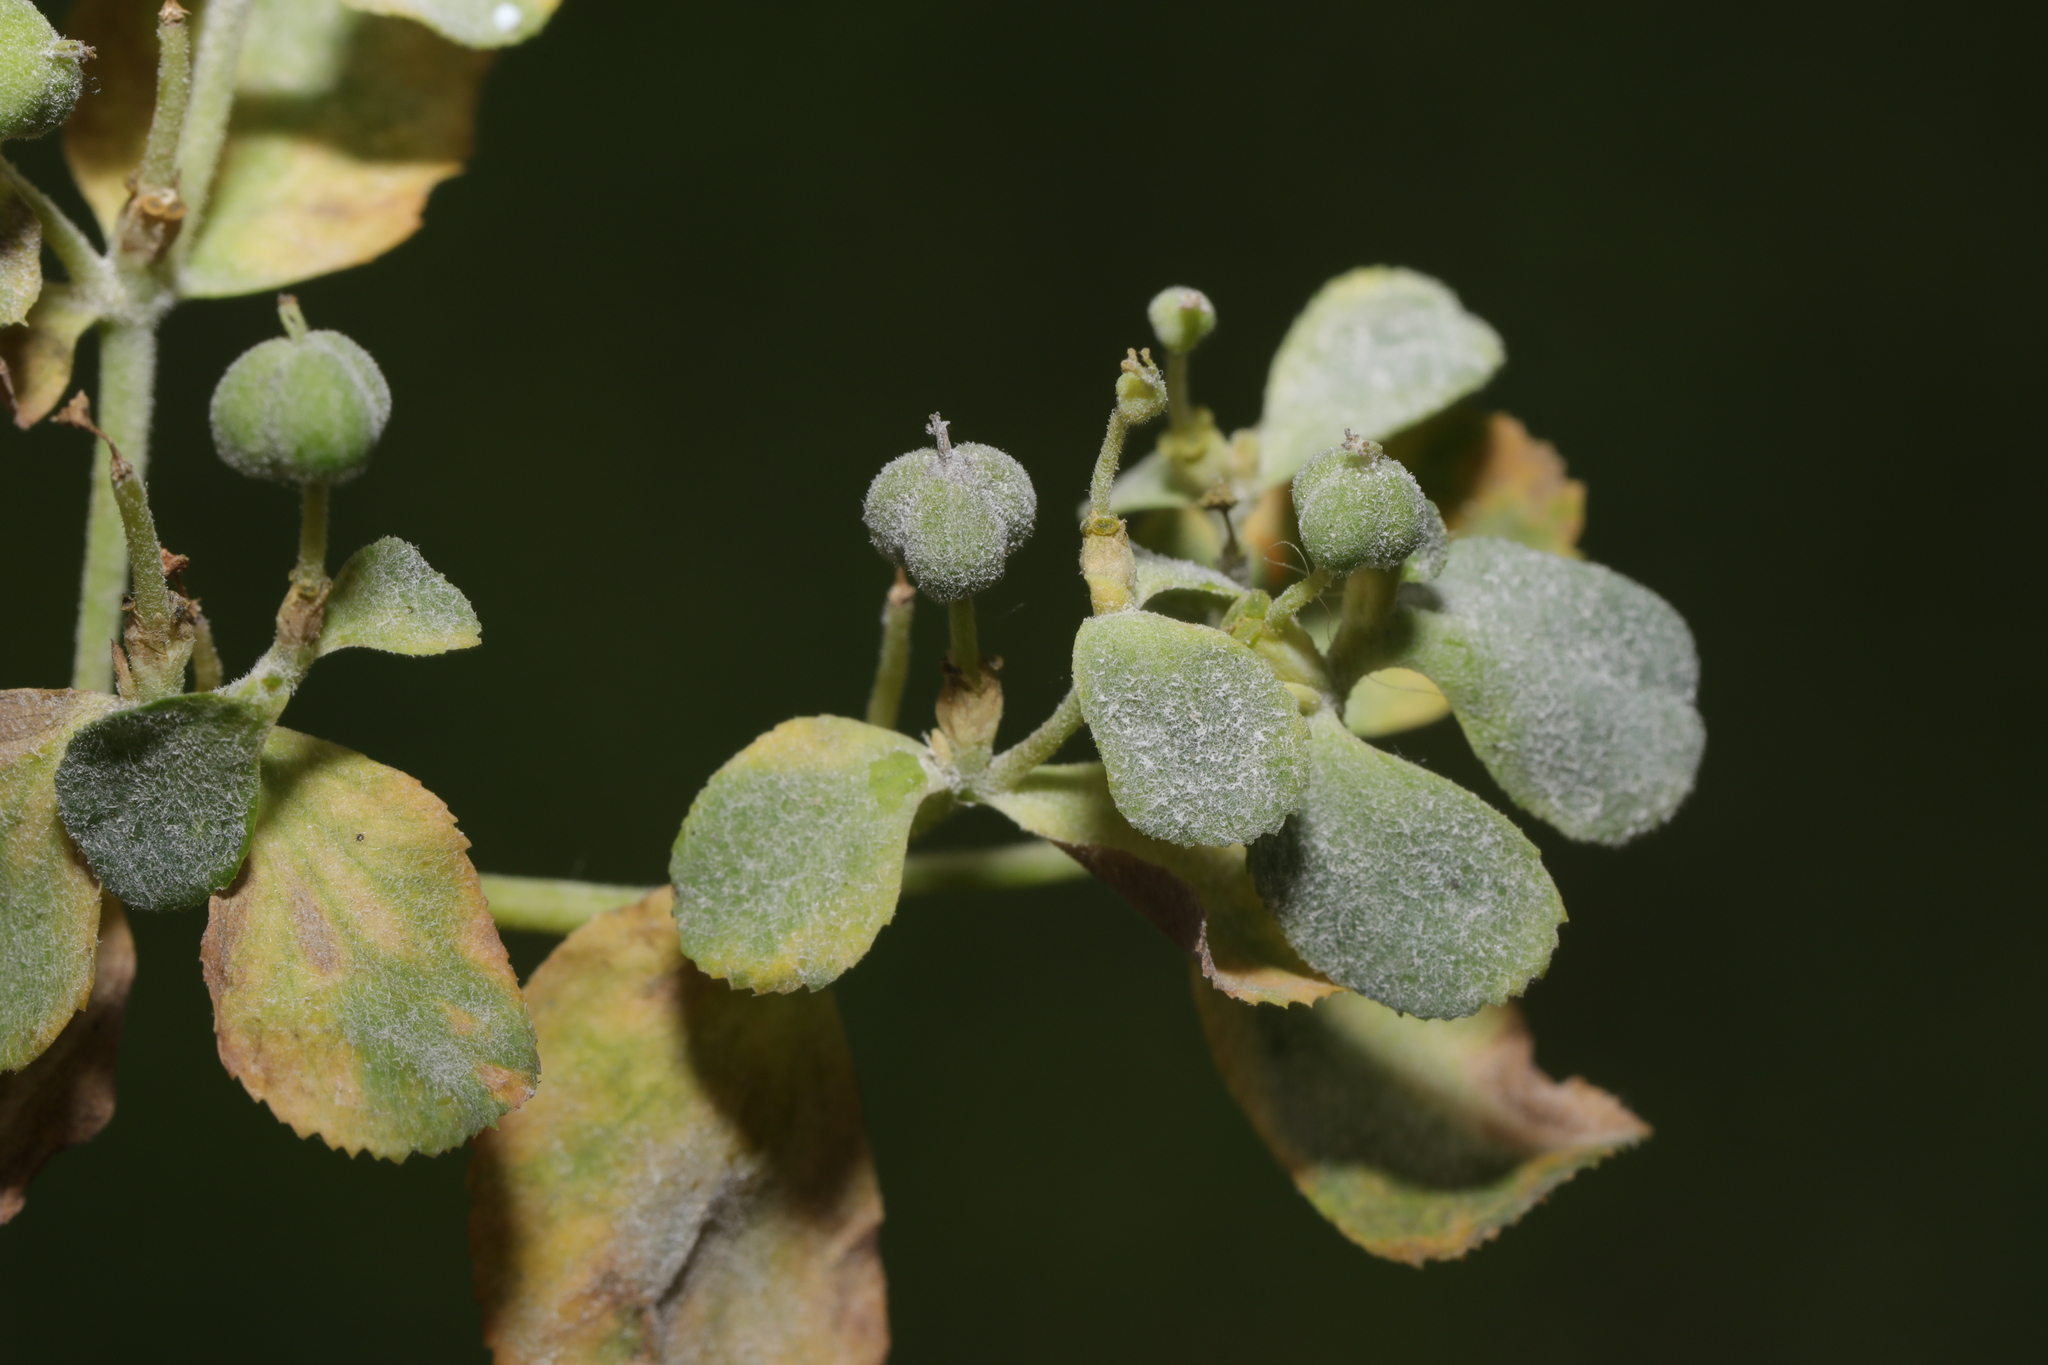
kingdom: Fungi
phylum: Ascomycota
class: Leotiomycetes
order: Helotiales
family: Erysiphaceae
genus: Podosphaera
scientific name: Podosphaera euphorbiae
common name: Eurasian poinsettia powdery mildew
